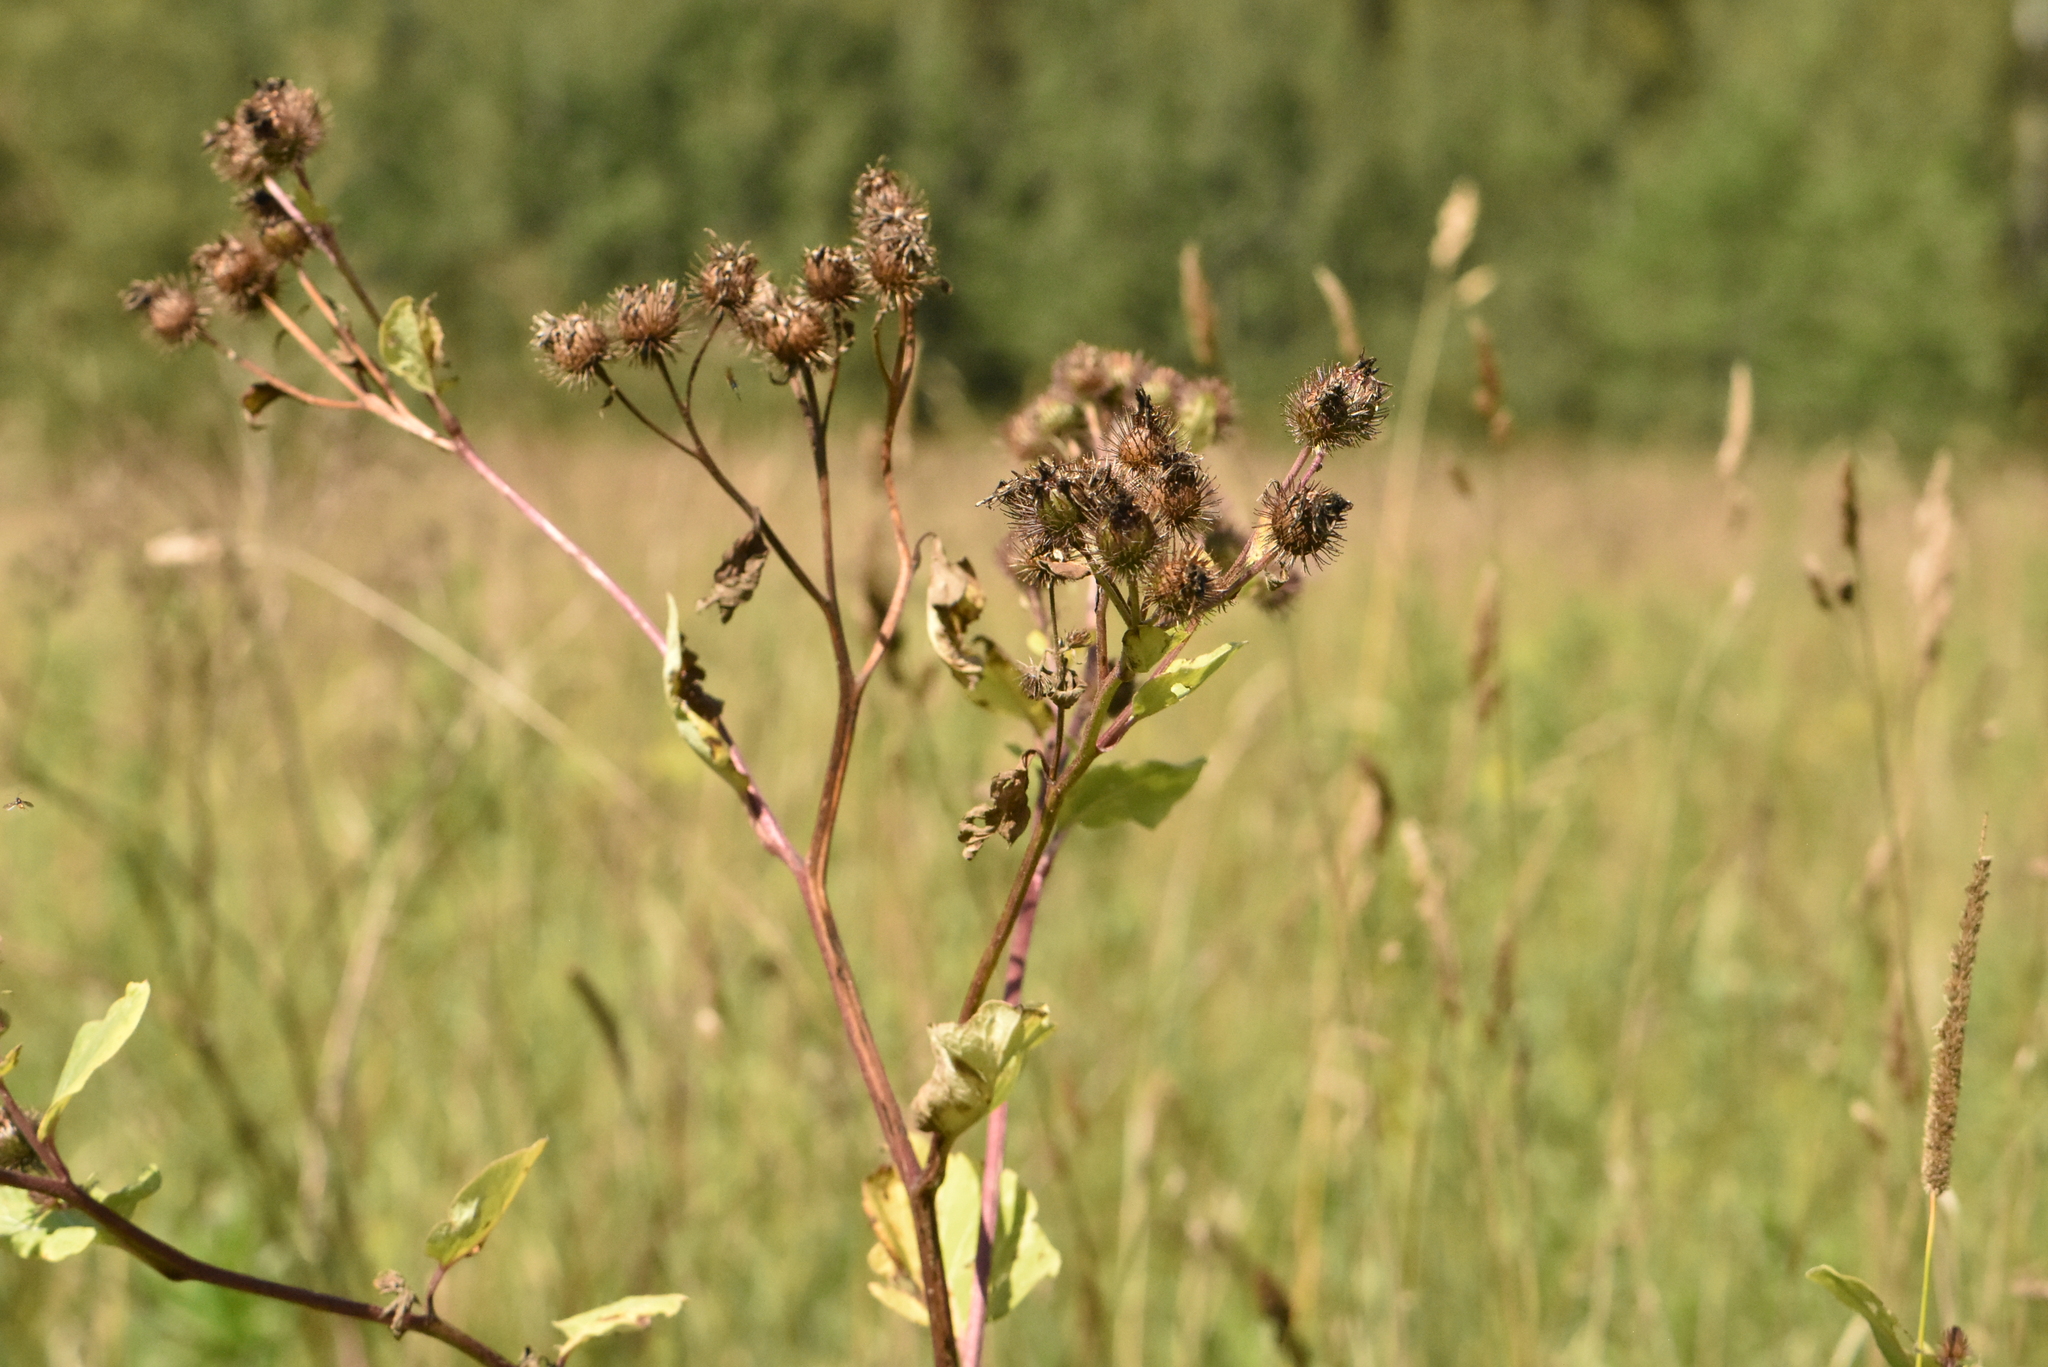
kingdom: Plantae
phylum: Tracheophyta
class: Magnoliopsida
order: Asterales
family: Asteraceae
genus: Arctium
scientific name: Arctium tomentosum
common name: Woolly burdock
